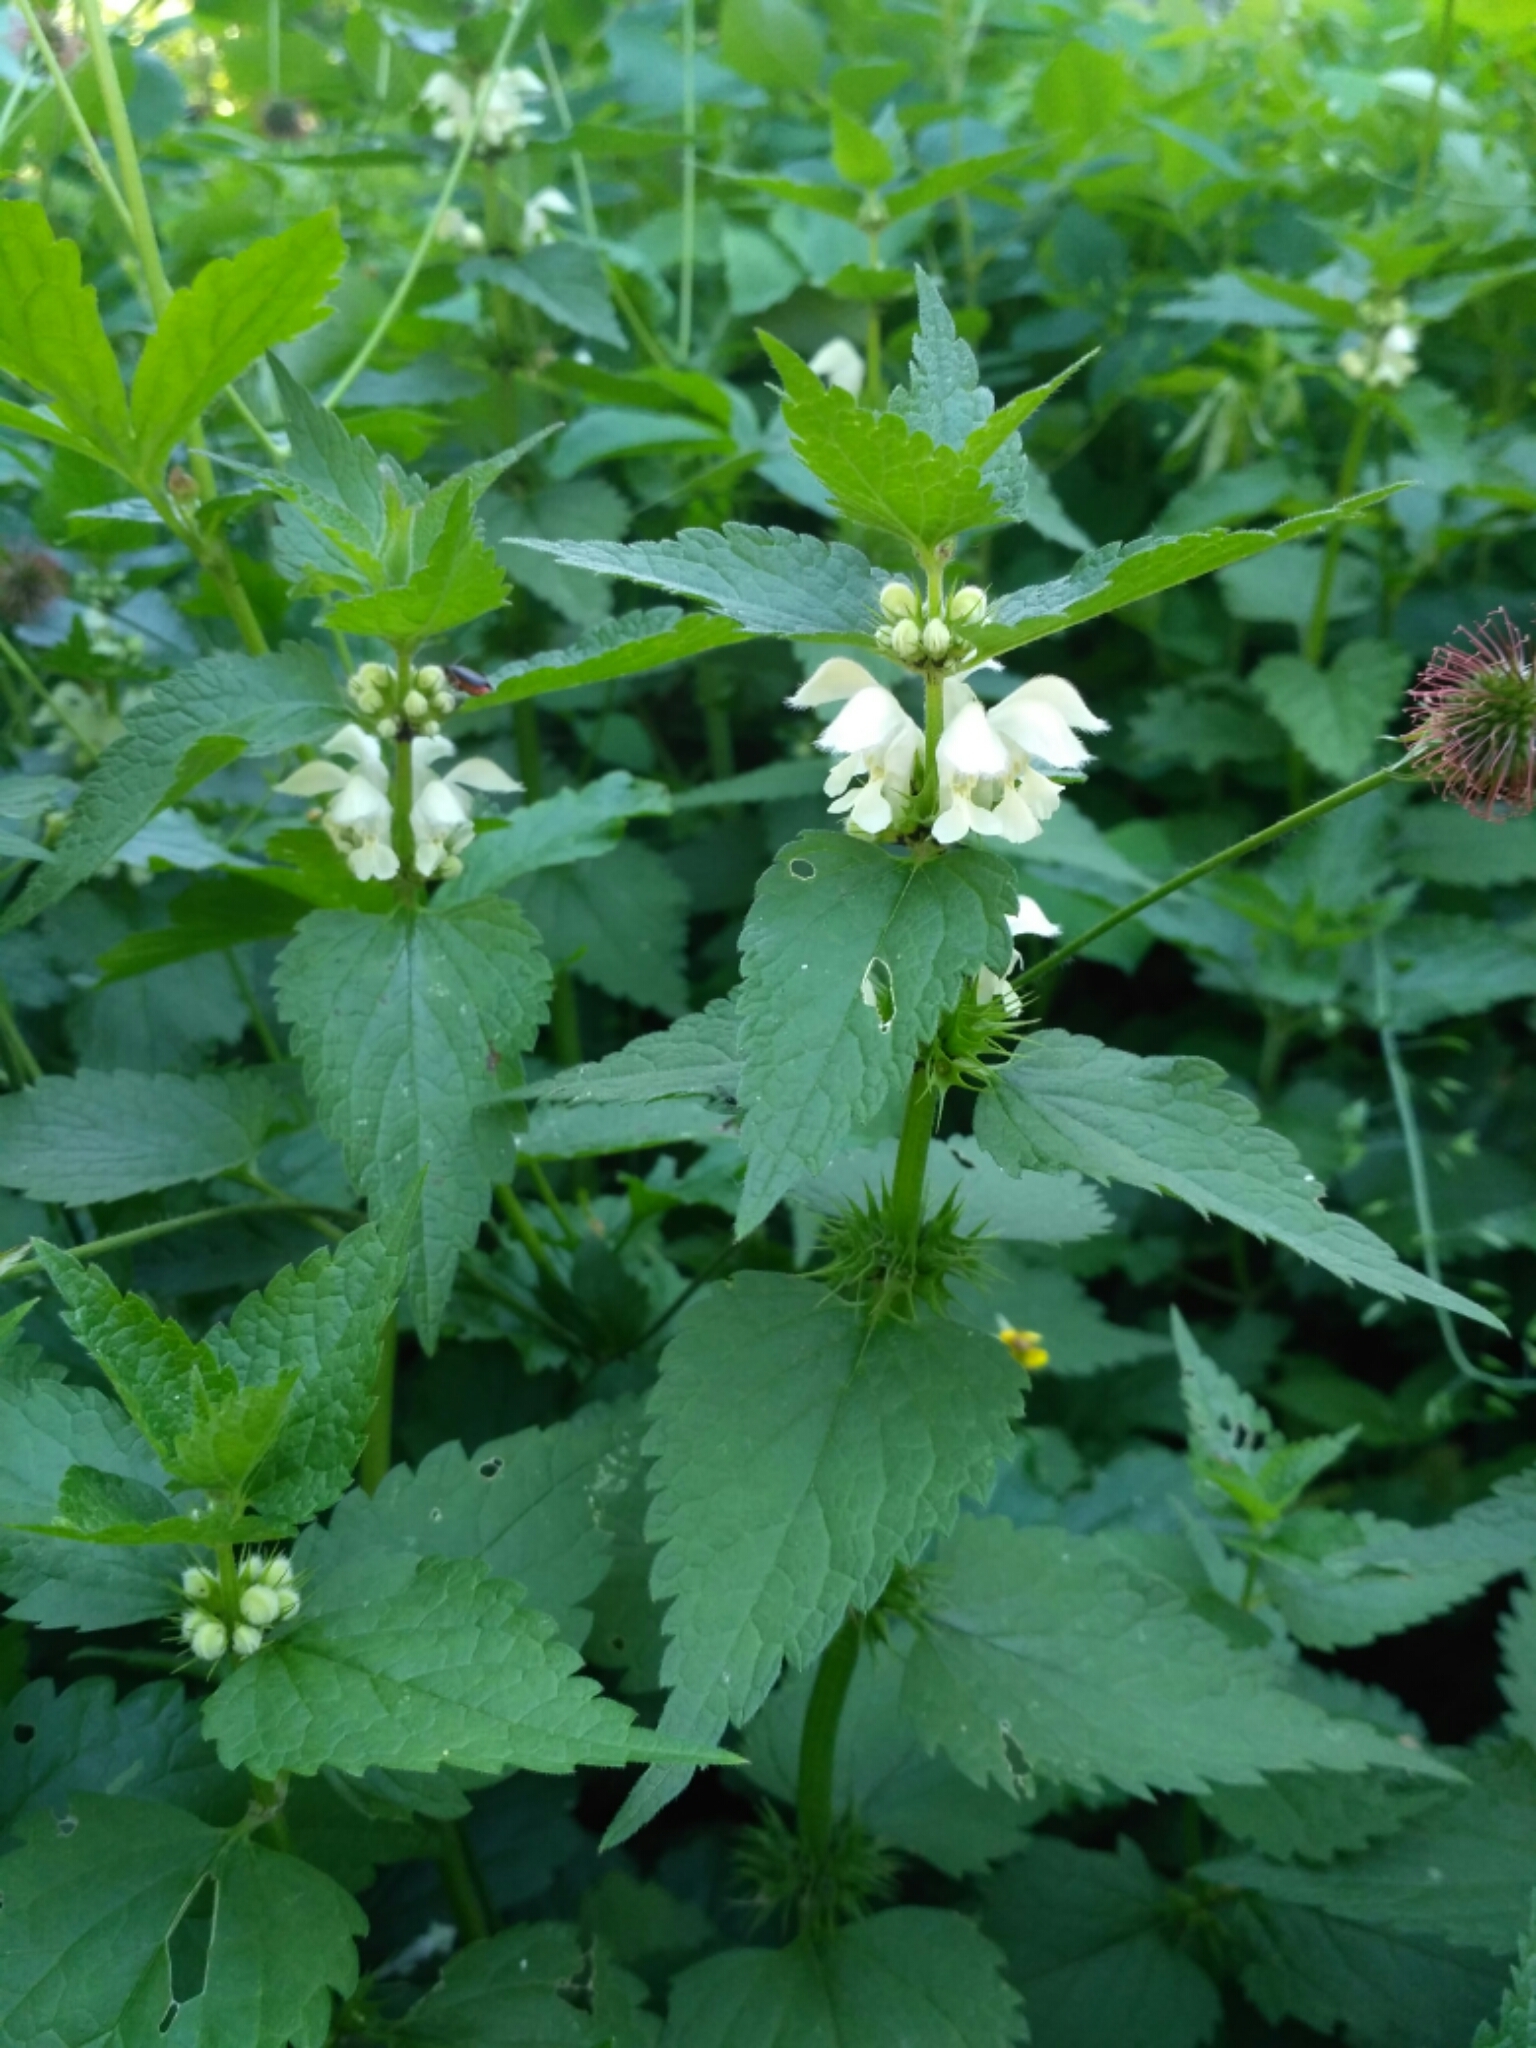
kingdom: Plantae
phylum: Tracheophyta
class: Magnoliopsida
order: Lamiales
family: Lamiaceae
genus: Lamium
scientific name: Lamium album
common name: White dead-nettle
